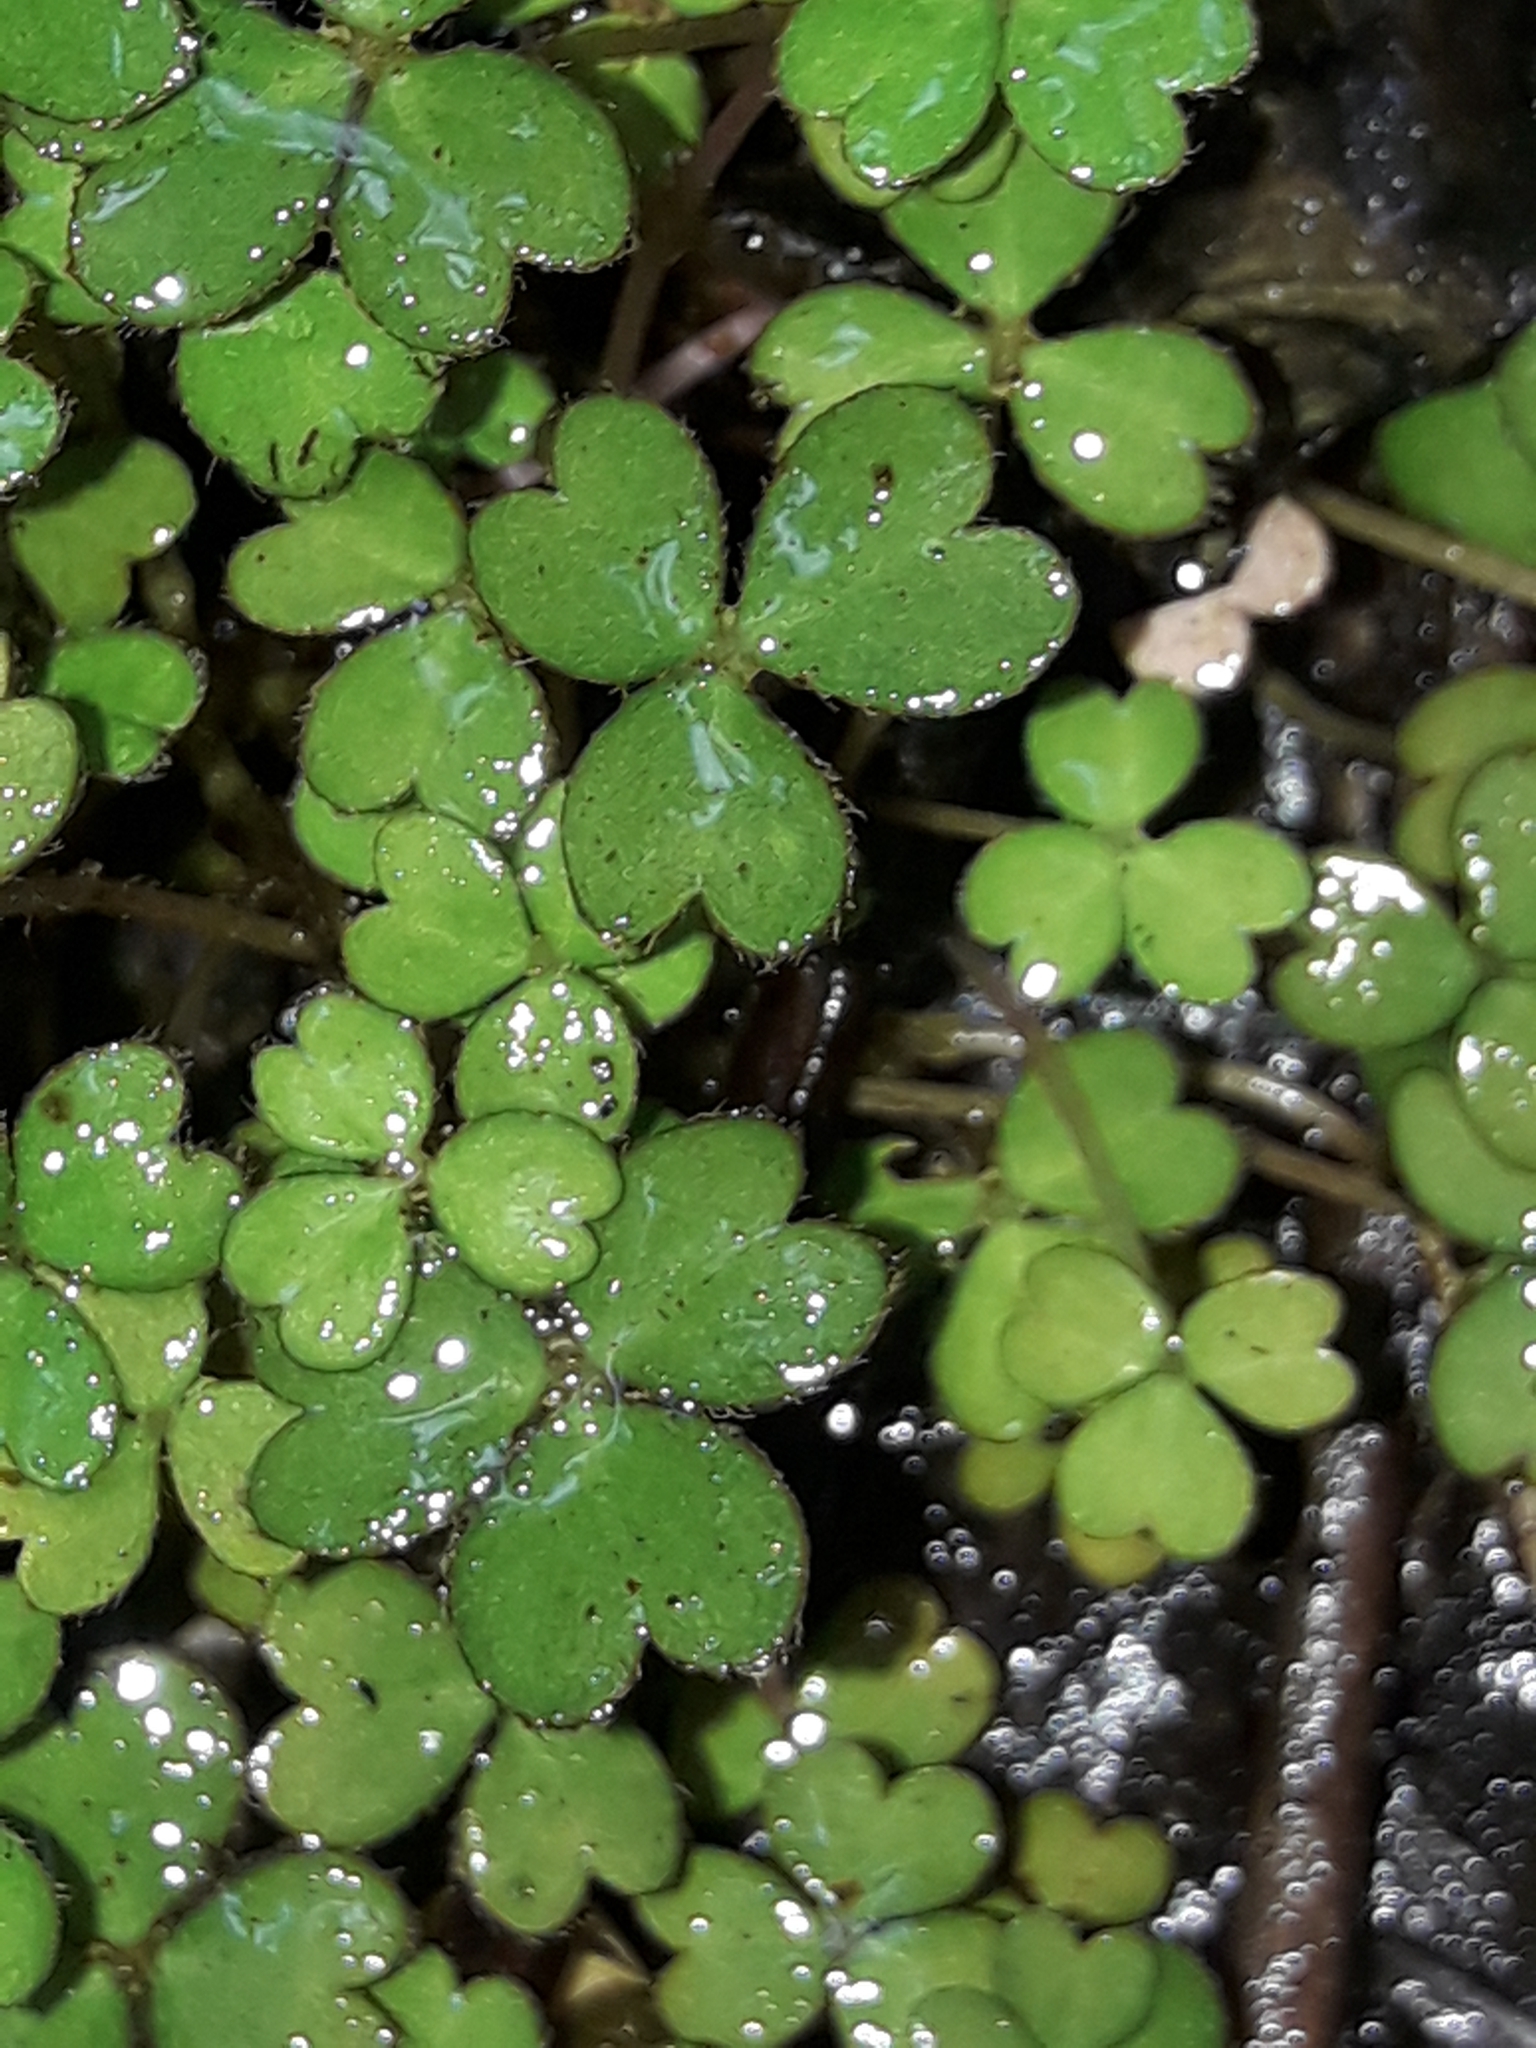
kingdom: Plantae
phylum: Tracheophyta
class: Magnoliopsida
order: Apiales
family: Araliaceae
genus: Hydrocotyle
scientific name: Hydrocotyle sulcata
